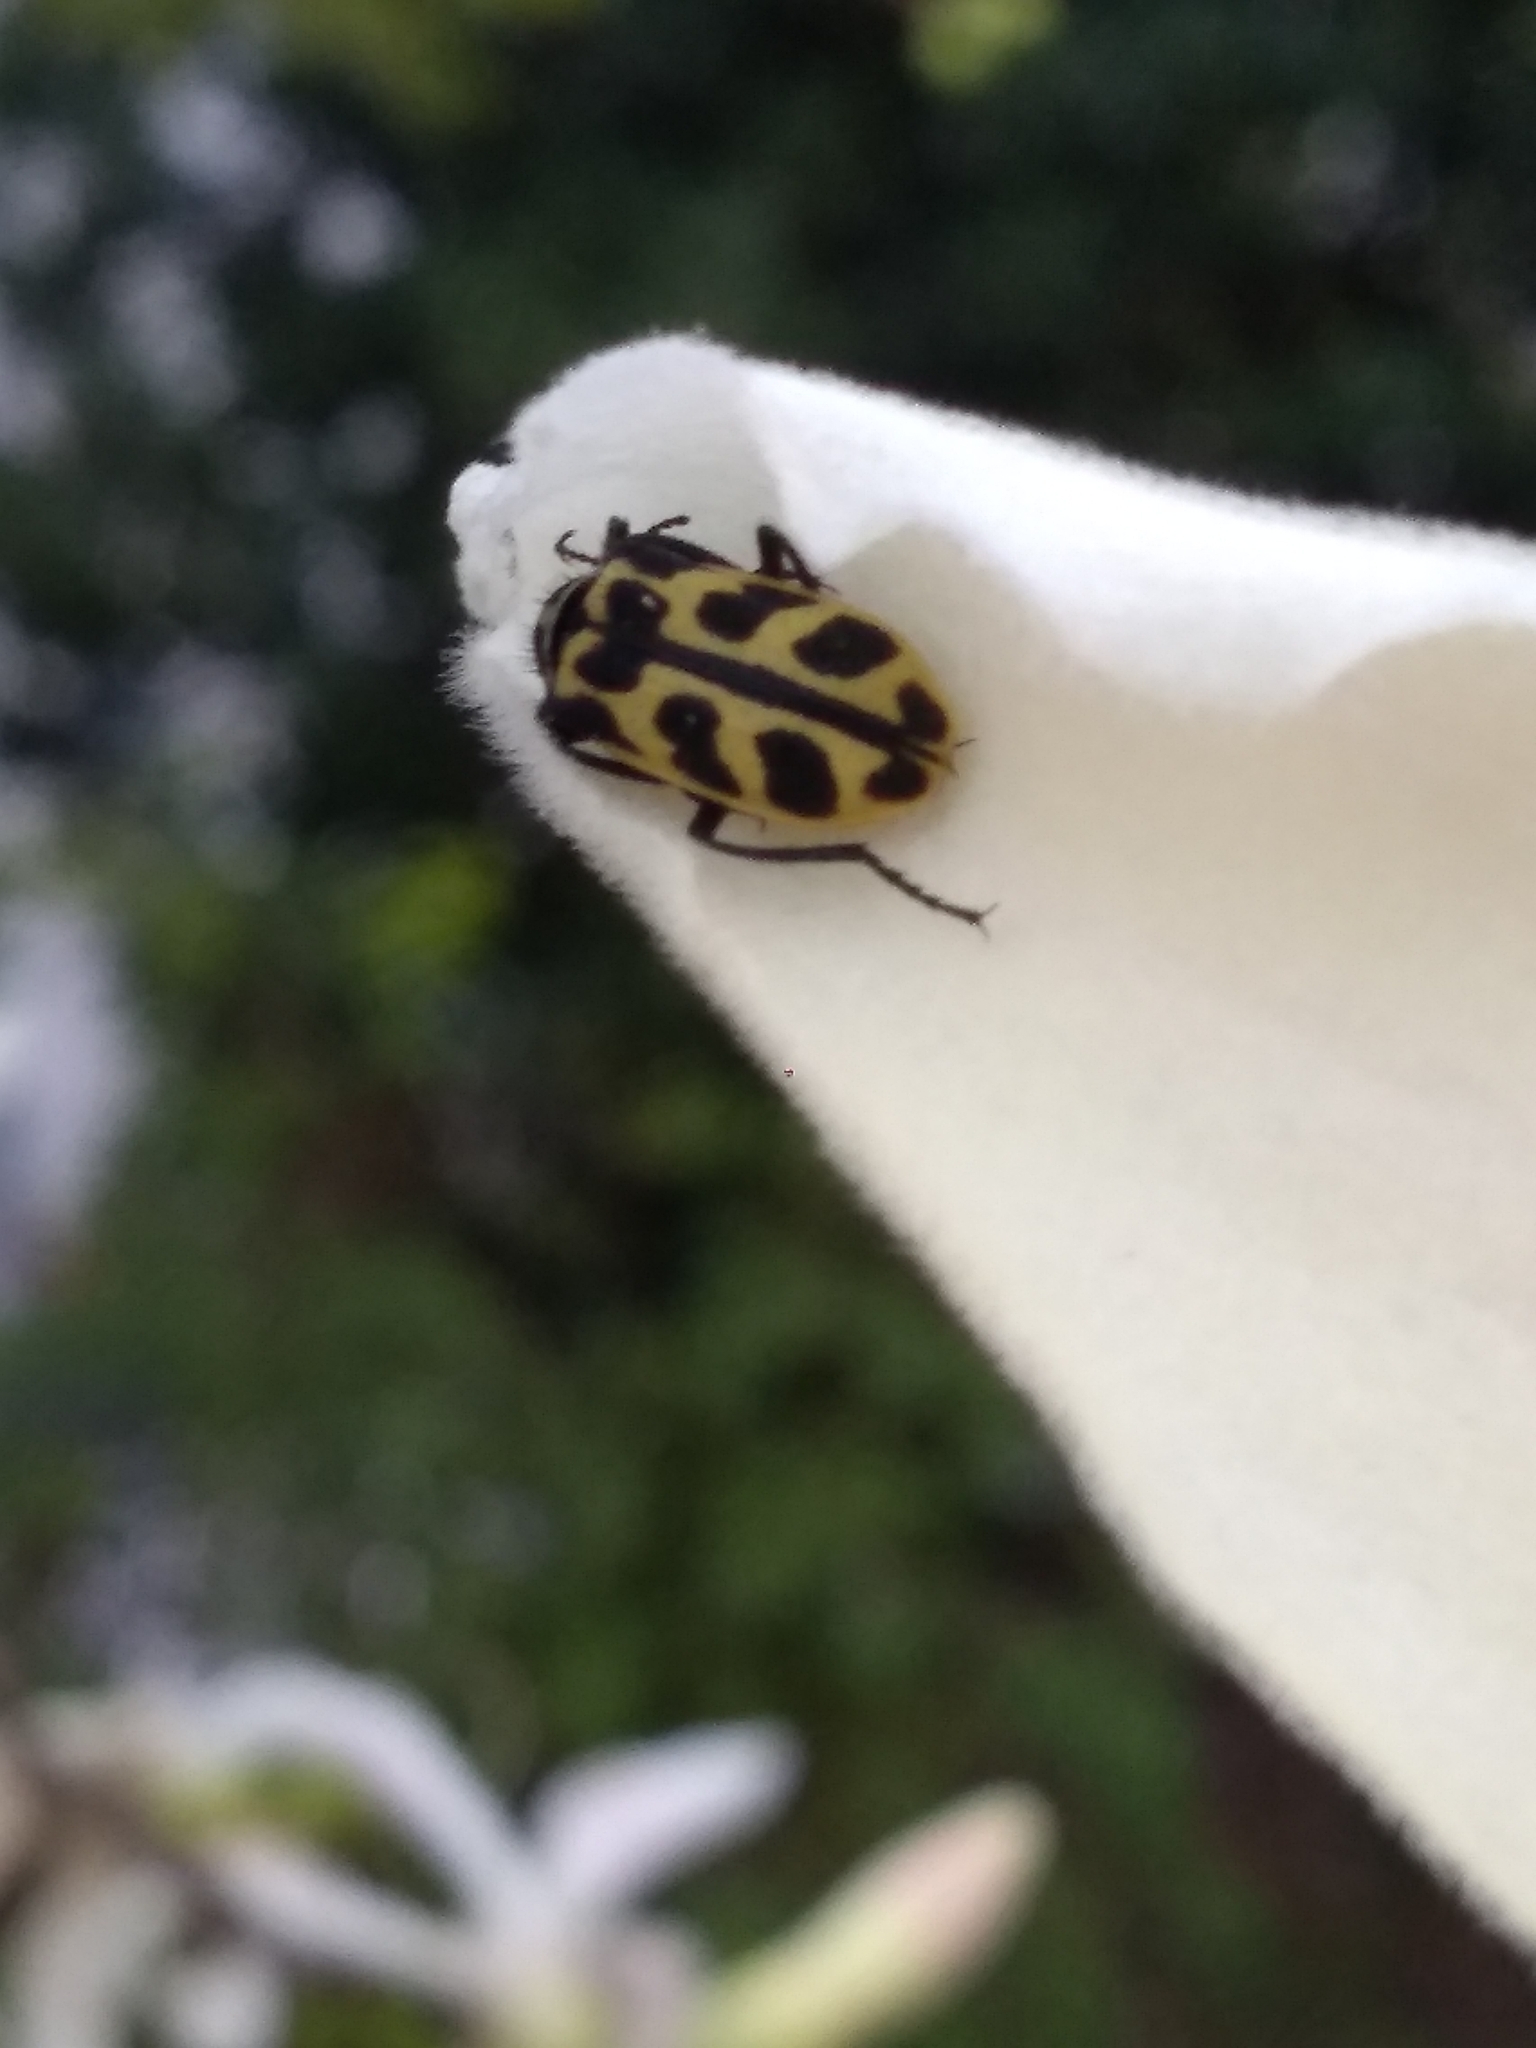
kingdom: Animalia
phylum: Arthropoda
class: Insecta
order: Coleoptera
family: Melyridae
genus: Astylus
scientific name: Astylus atromaculatus
